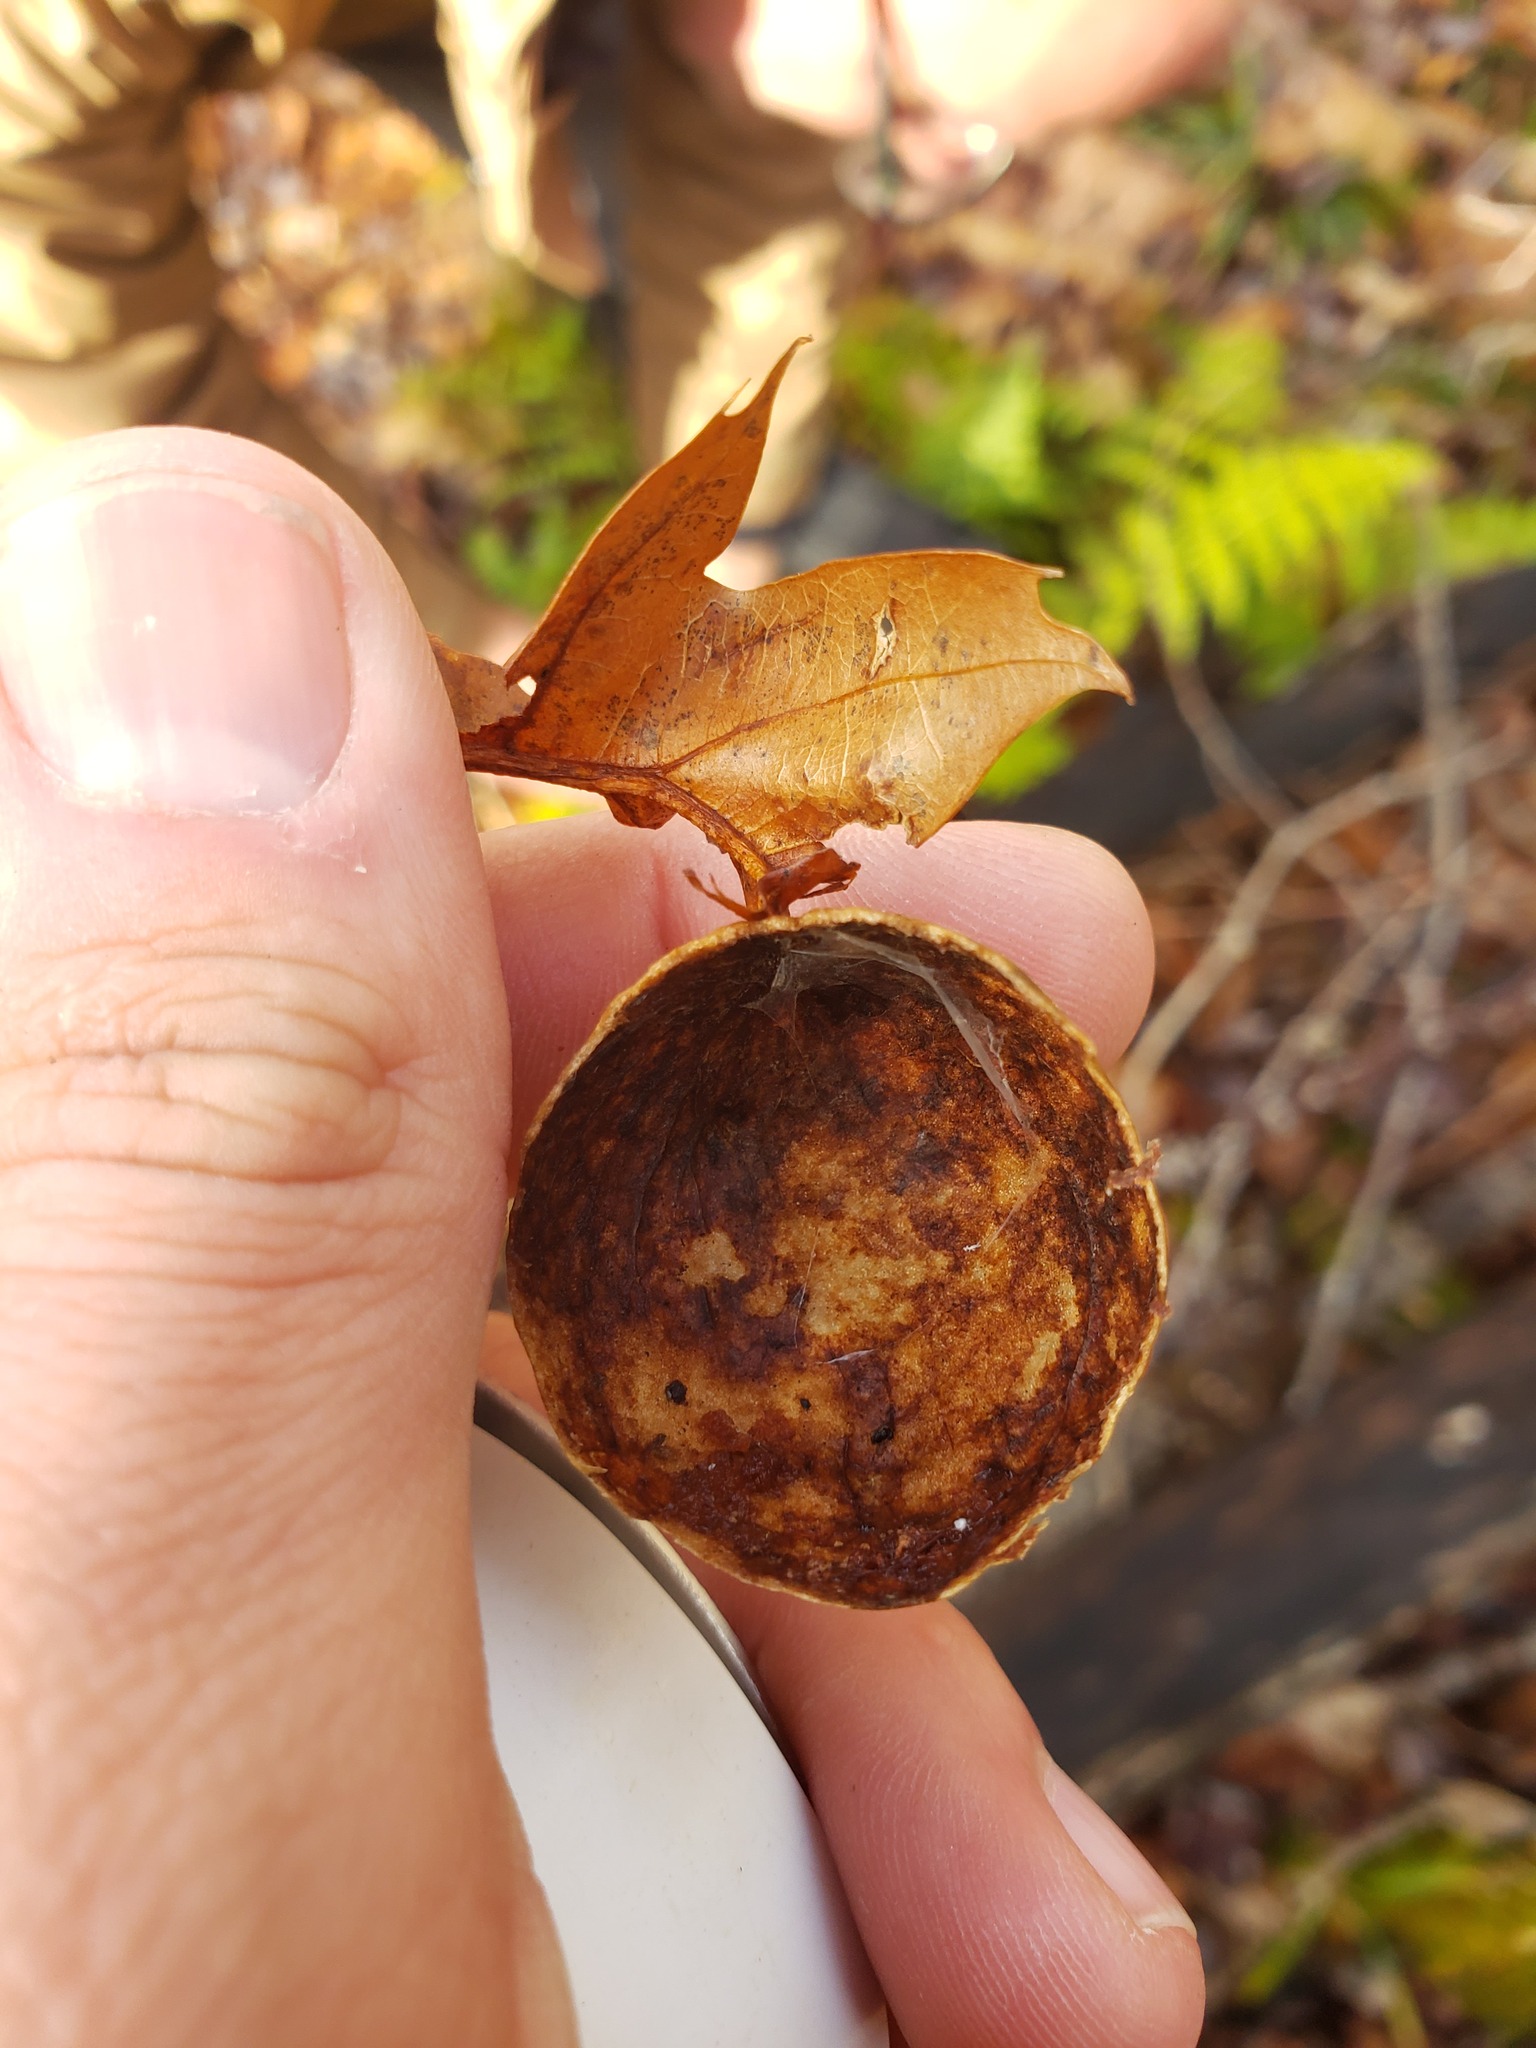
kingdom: Animalia
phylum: Arthropoda
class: Insecta
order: Hymenoptera
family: Cynipidae
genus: Amphibolips
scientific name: Amphibolips
